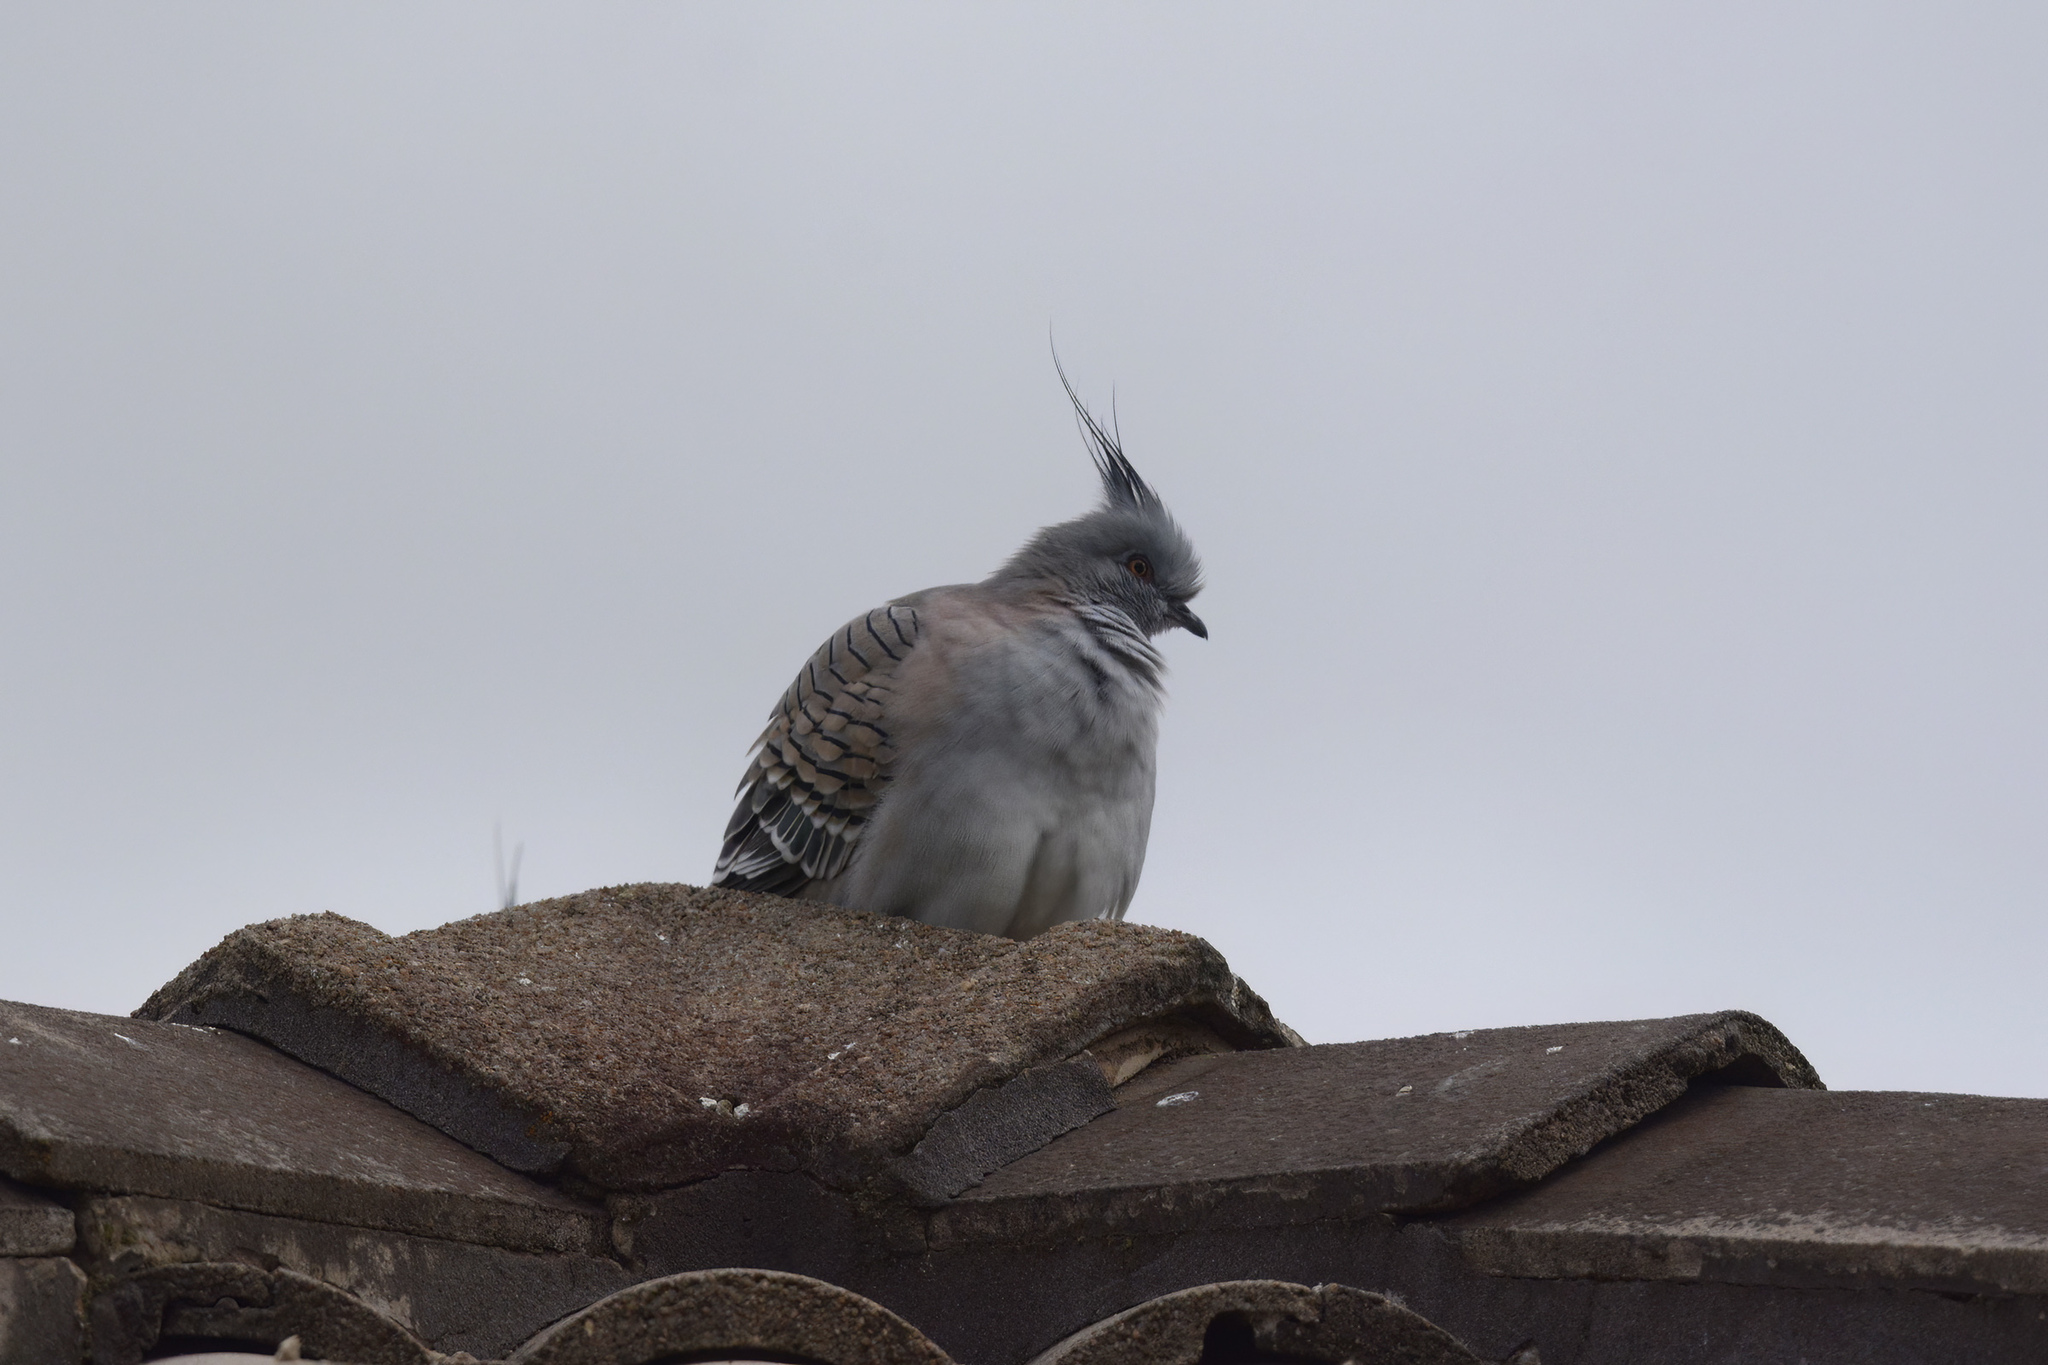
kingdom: Animalia
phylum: Chordata
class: Aves
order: Columbiformes
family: Columbidae
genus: Ocyphaps
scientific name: Ocyphaps lophotes
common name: Crested pigeon
